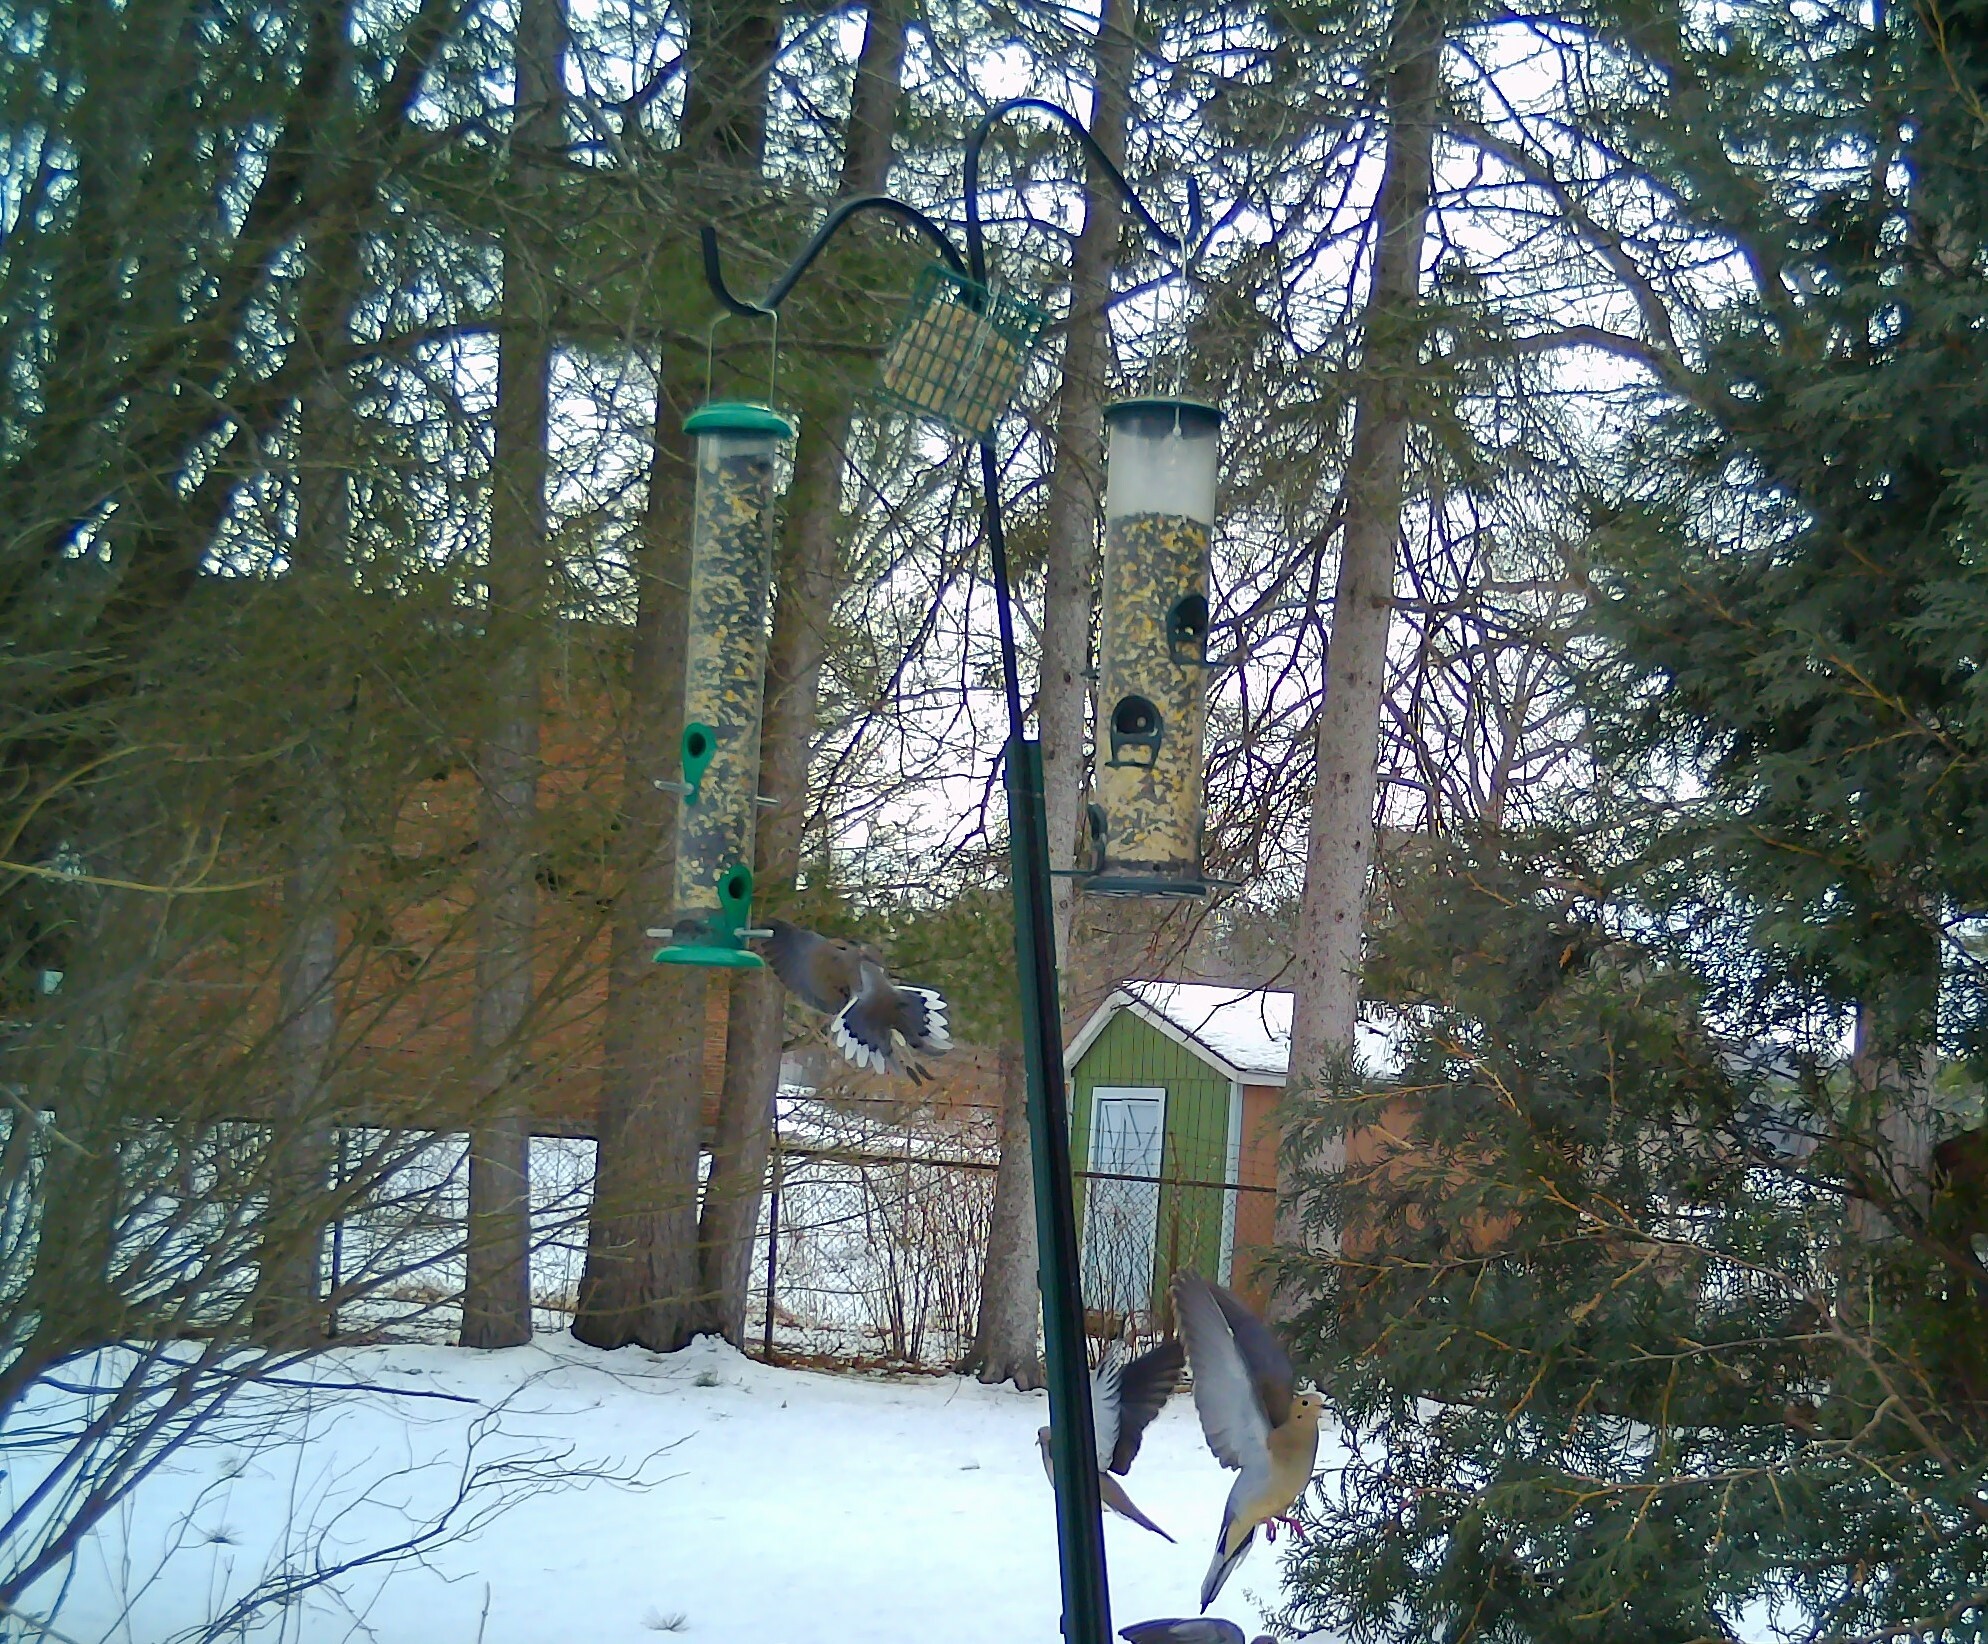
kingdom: Animalia
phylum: Chordata
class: Aves
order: Columbiformes
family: Columbidae
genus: Zenaida
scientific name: Zenaida macroura
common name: Mourning dove
